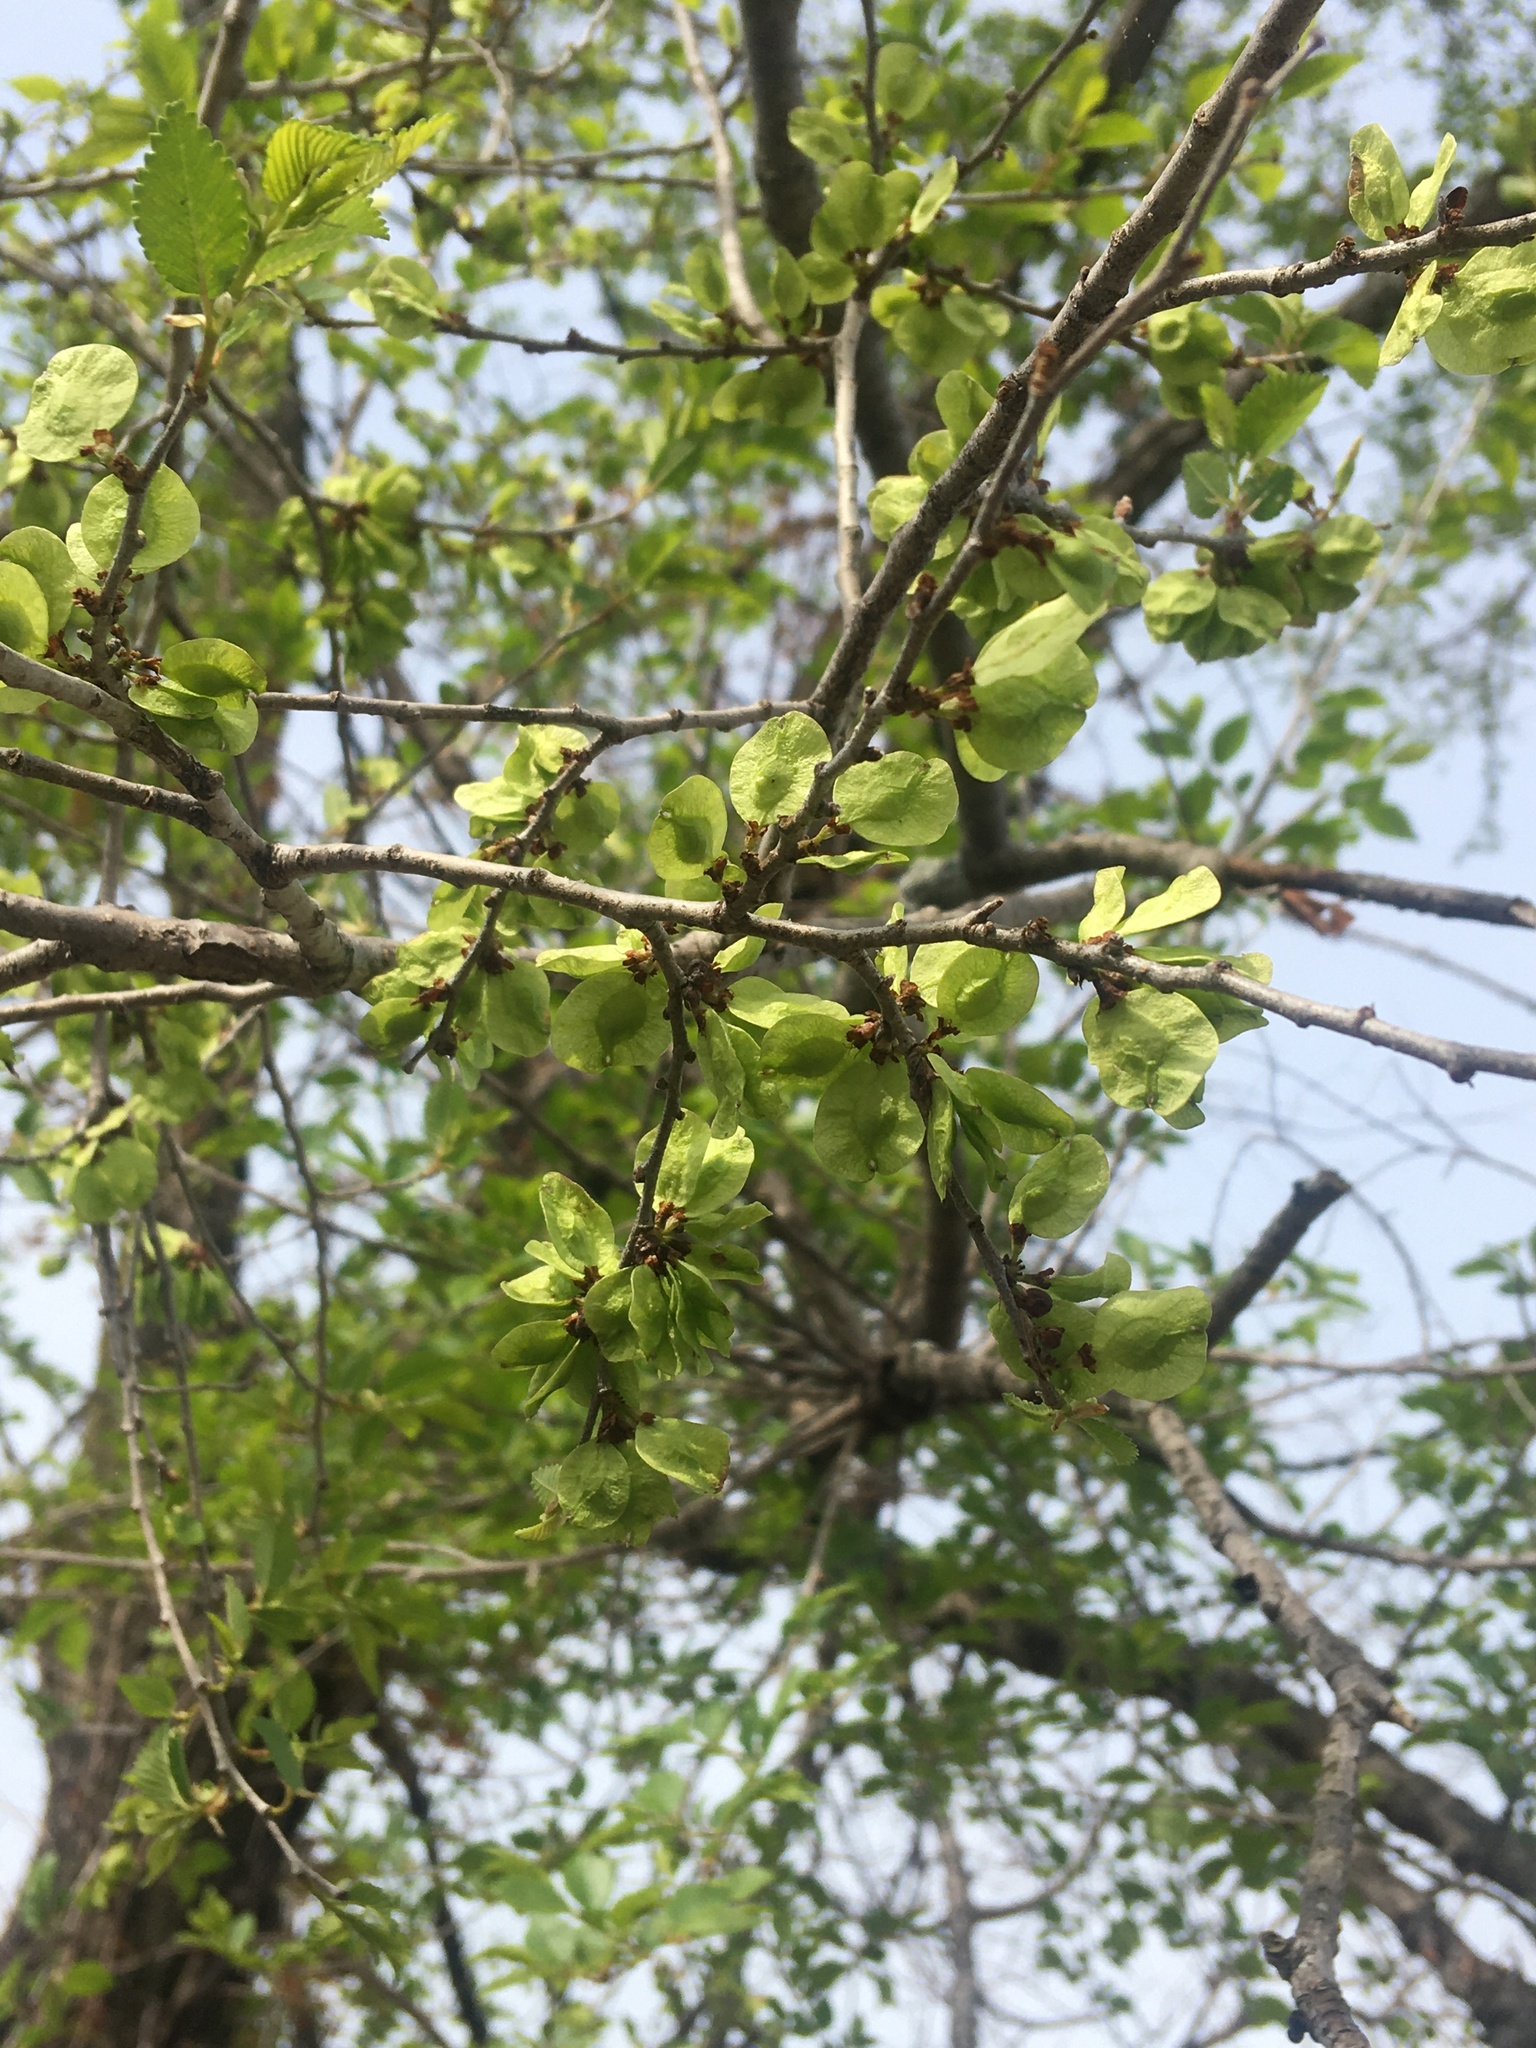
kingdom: Plantae
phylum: Tracheophyta
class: Magnoliopsida
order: Rosales
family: Ulmaceae
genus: Ulmus
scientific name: Ulmus pumila
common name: Siberian elm
